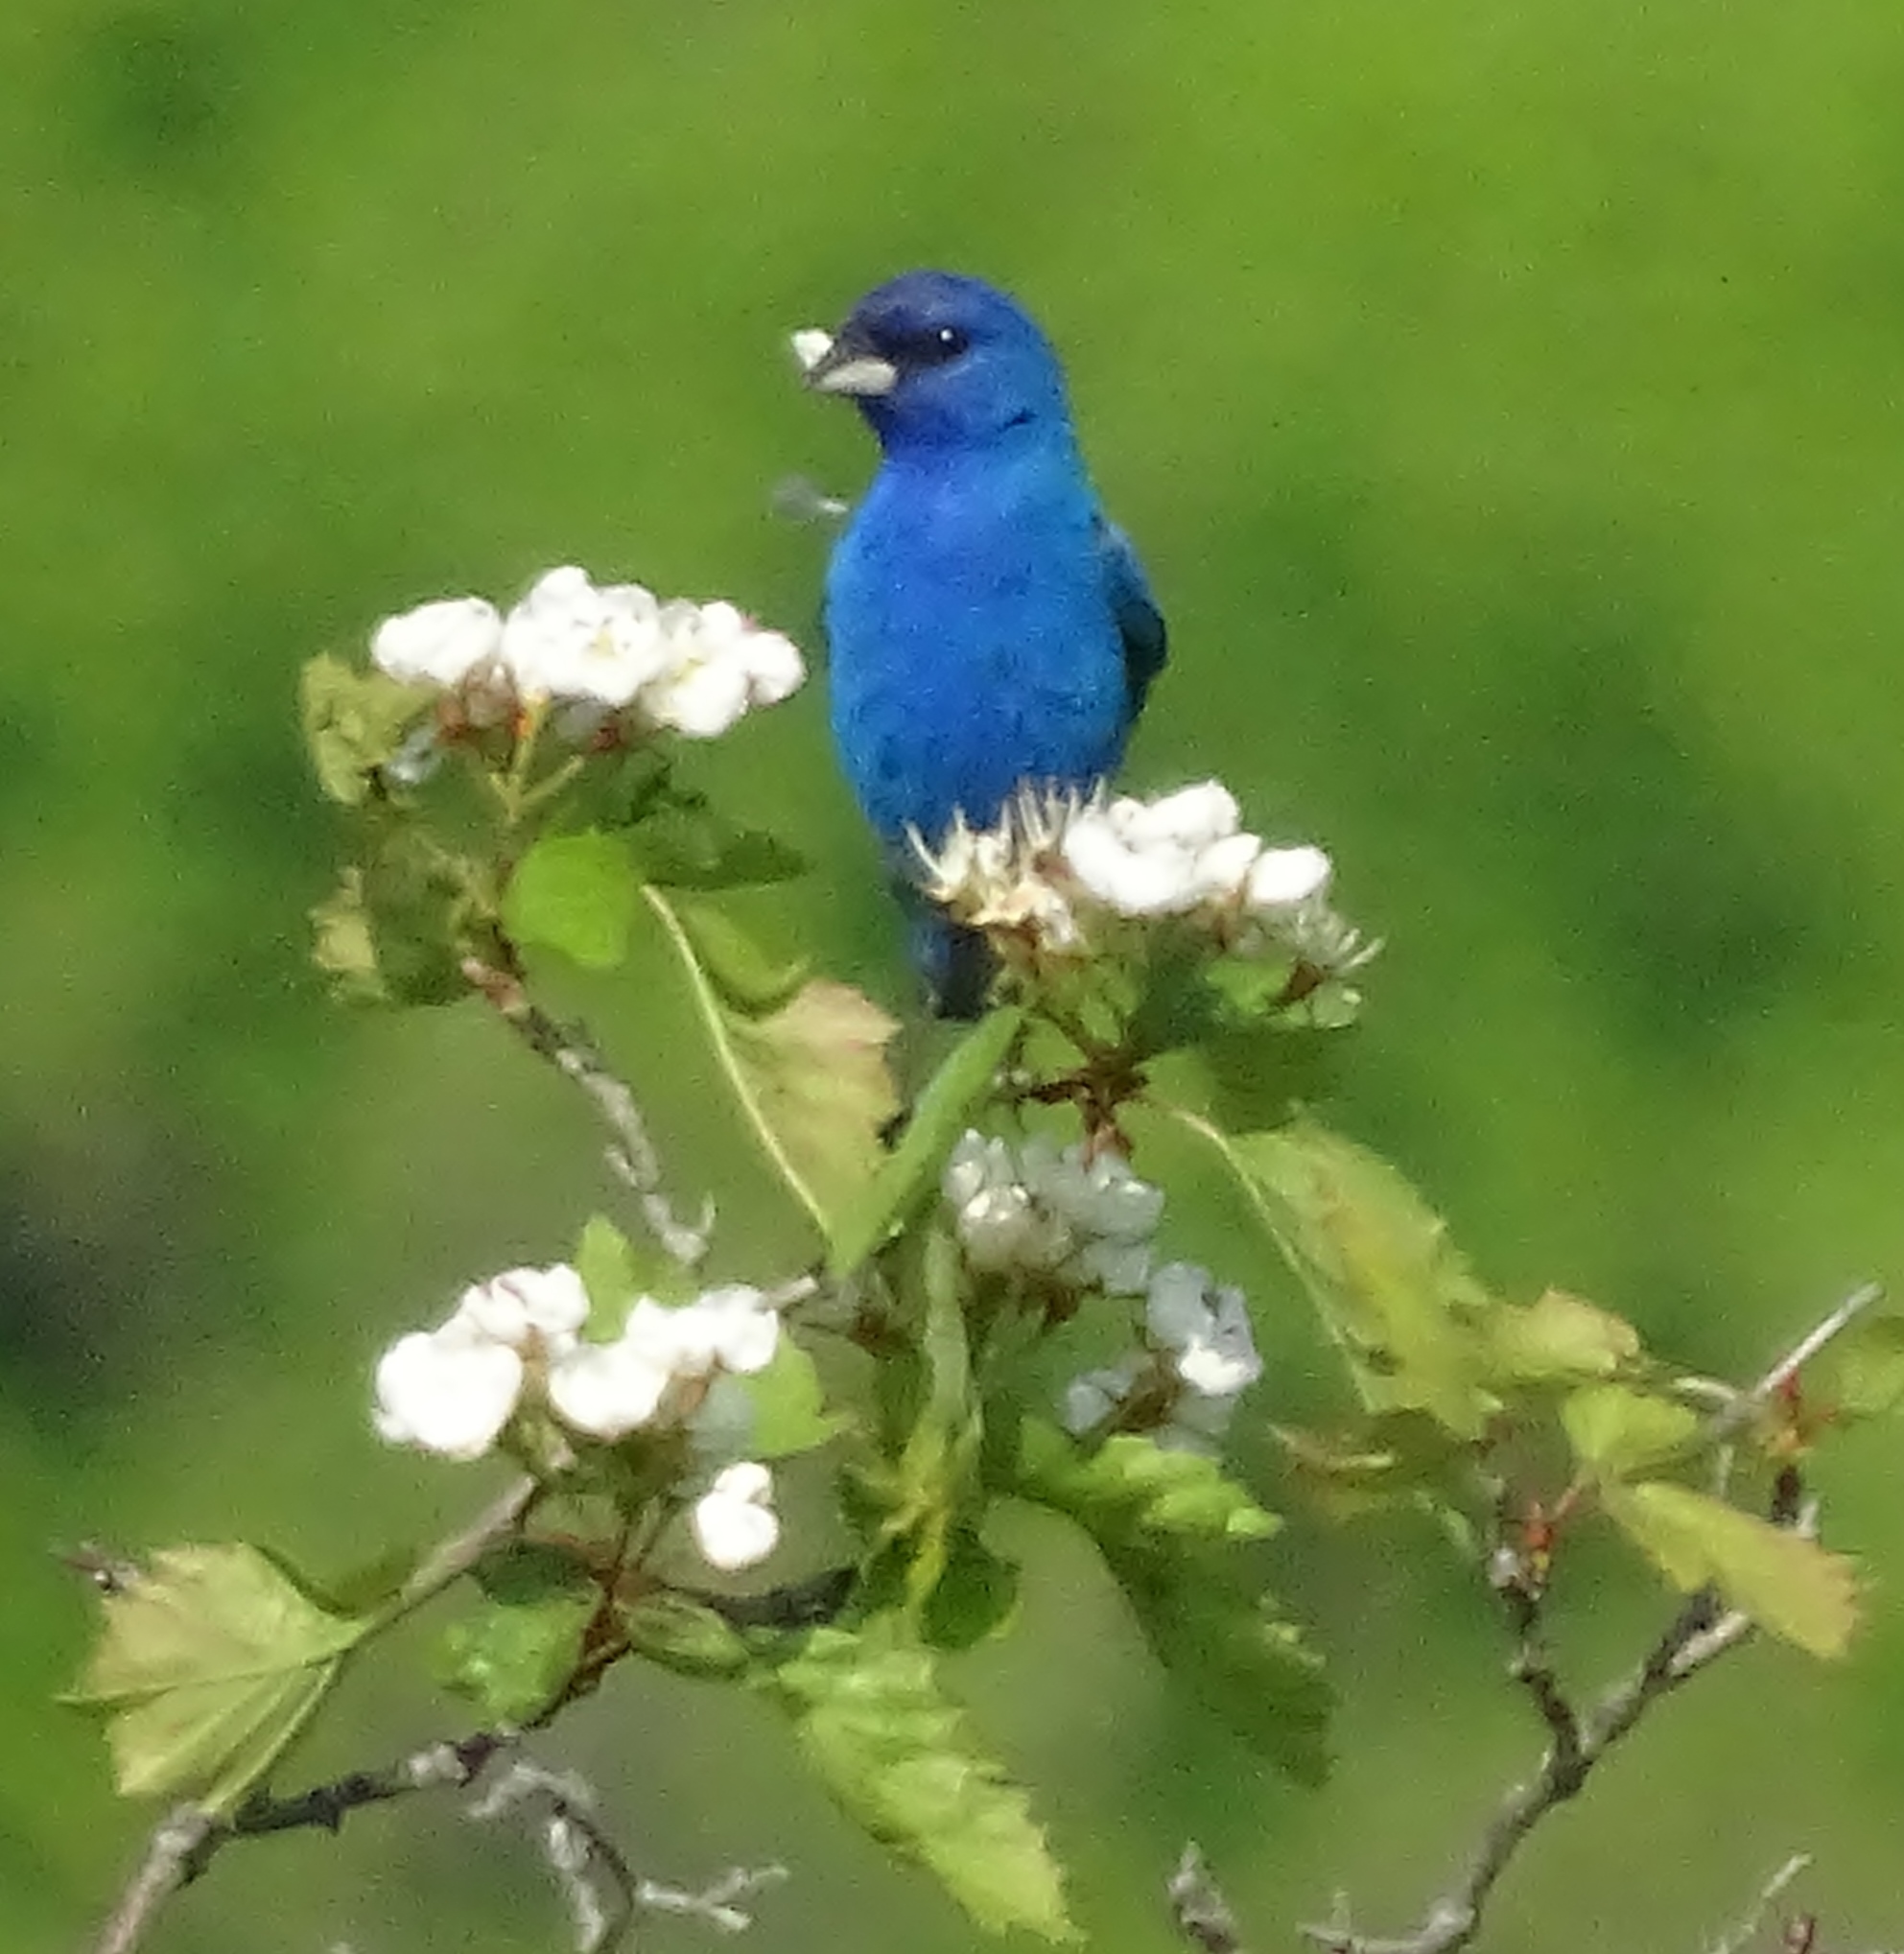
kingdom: Animalia
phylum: Chordata
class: Aves
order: Passeriformes
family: Cardinalidae
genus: Passerina
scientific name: Passerina cyanea
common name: Indigo bunting
